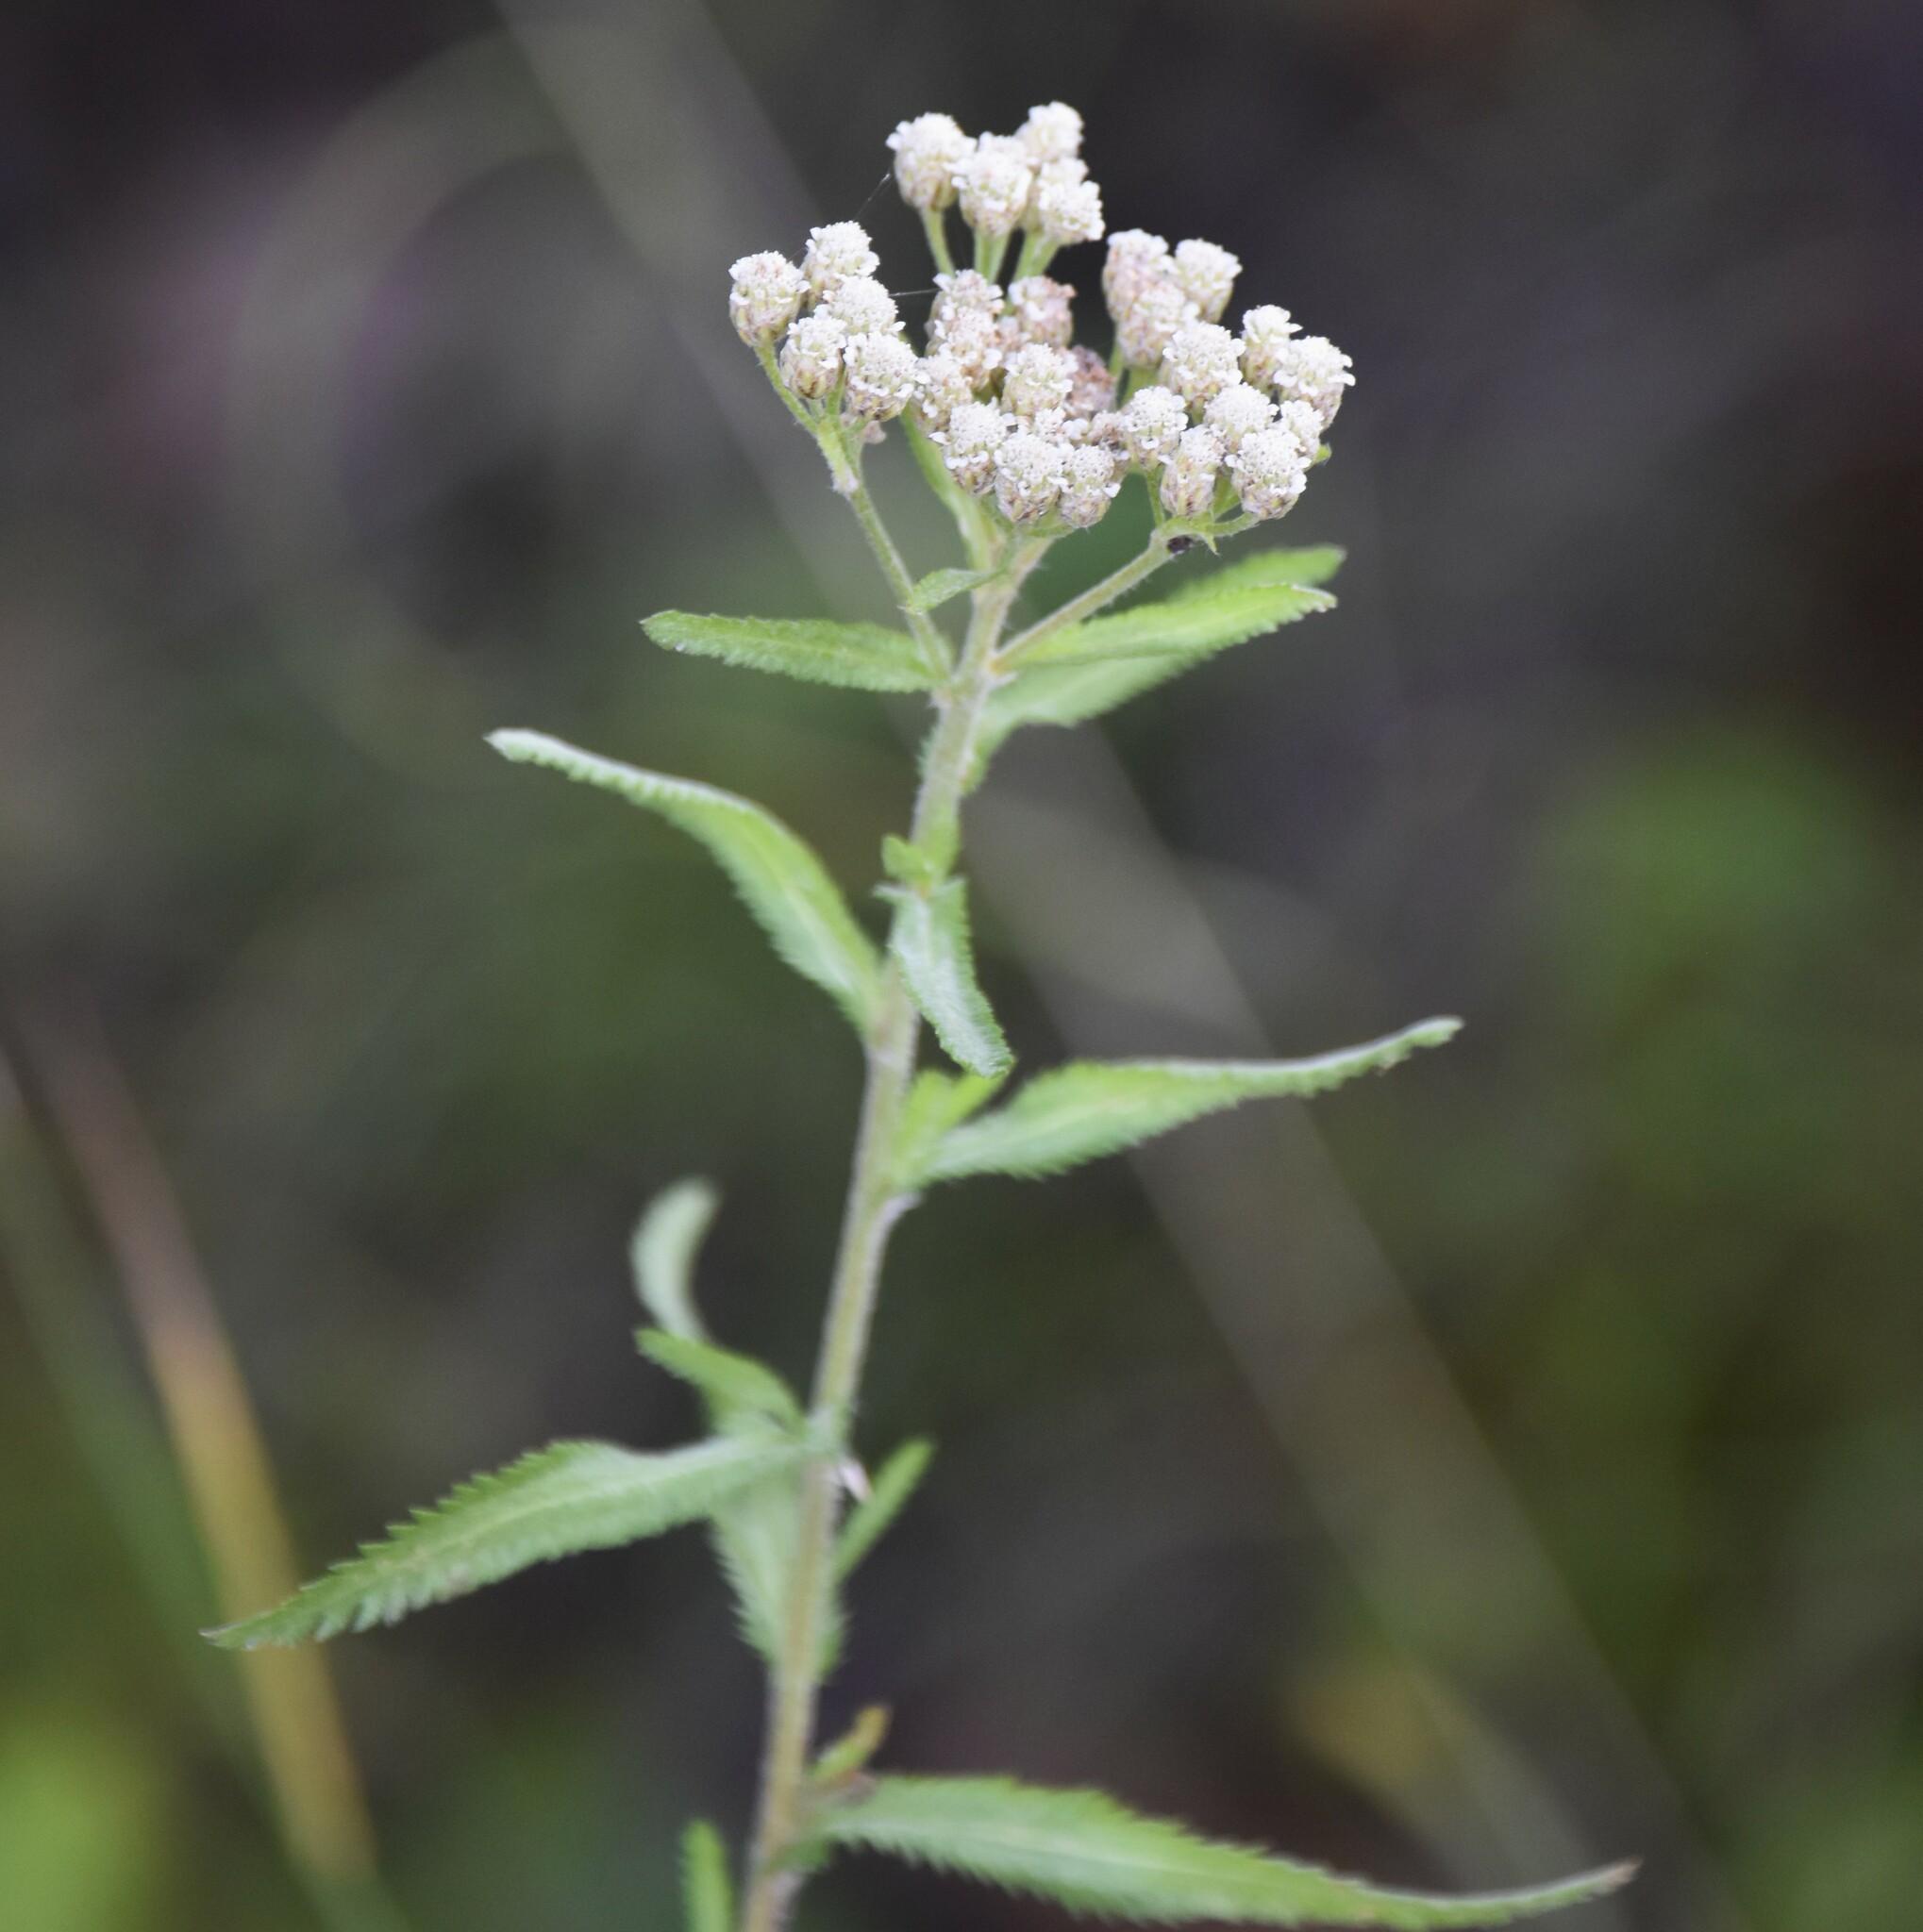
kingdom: Plantae
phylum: Tracheophyta
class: Magnoliopsida
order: Asterales
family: Asteraceae
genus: Achillea
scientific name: Achillea alpina
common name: Siberian yarrow
